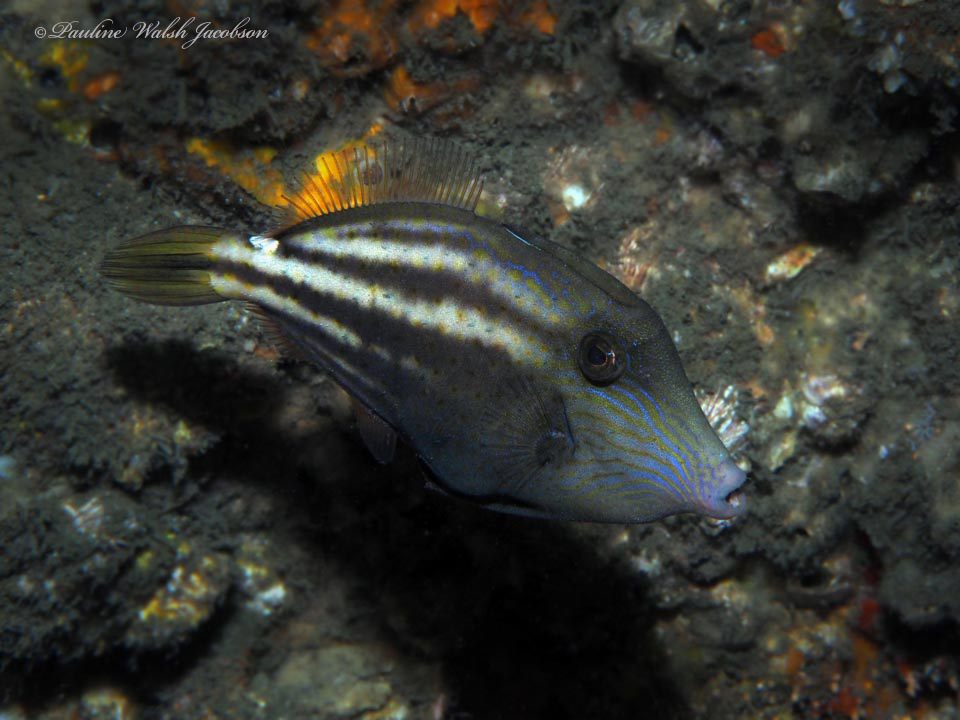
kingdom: Animalia
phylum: Chordata
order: Tetraodontiformes
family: Monacanthidae
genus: Cantherhines
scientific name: Cantherhines pullus
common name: Orangespotted filefish
